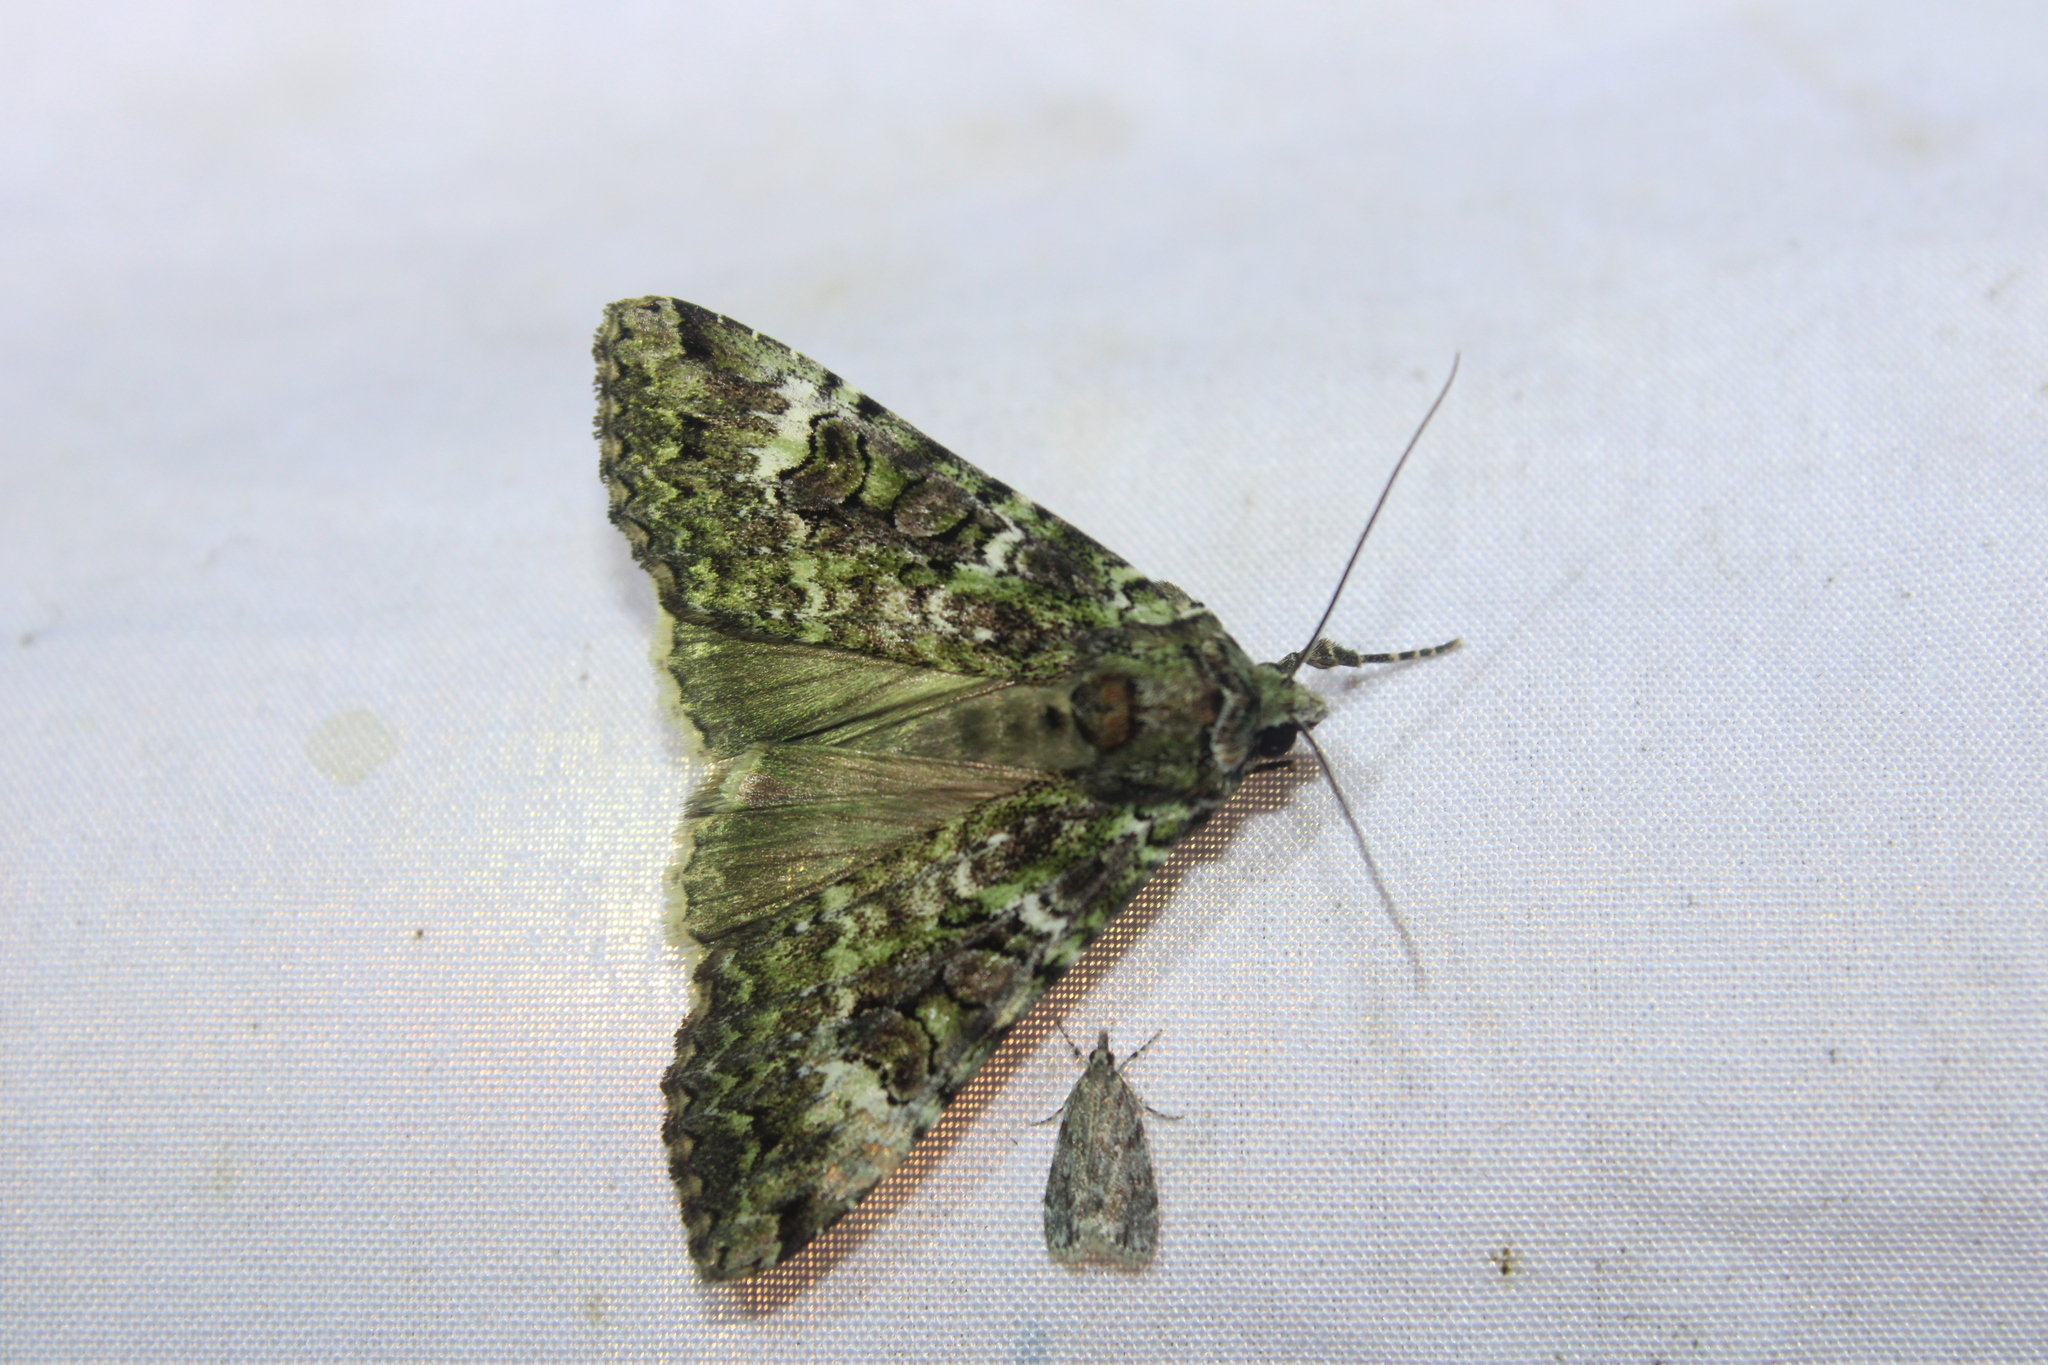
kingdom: Animalia
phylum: Arthropoda
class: Insecta
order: Lepidoptera
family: Noctuidae
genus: Anaplectoides
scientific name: Anaplectoides prasina
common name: Green arches
